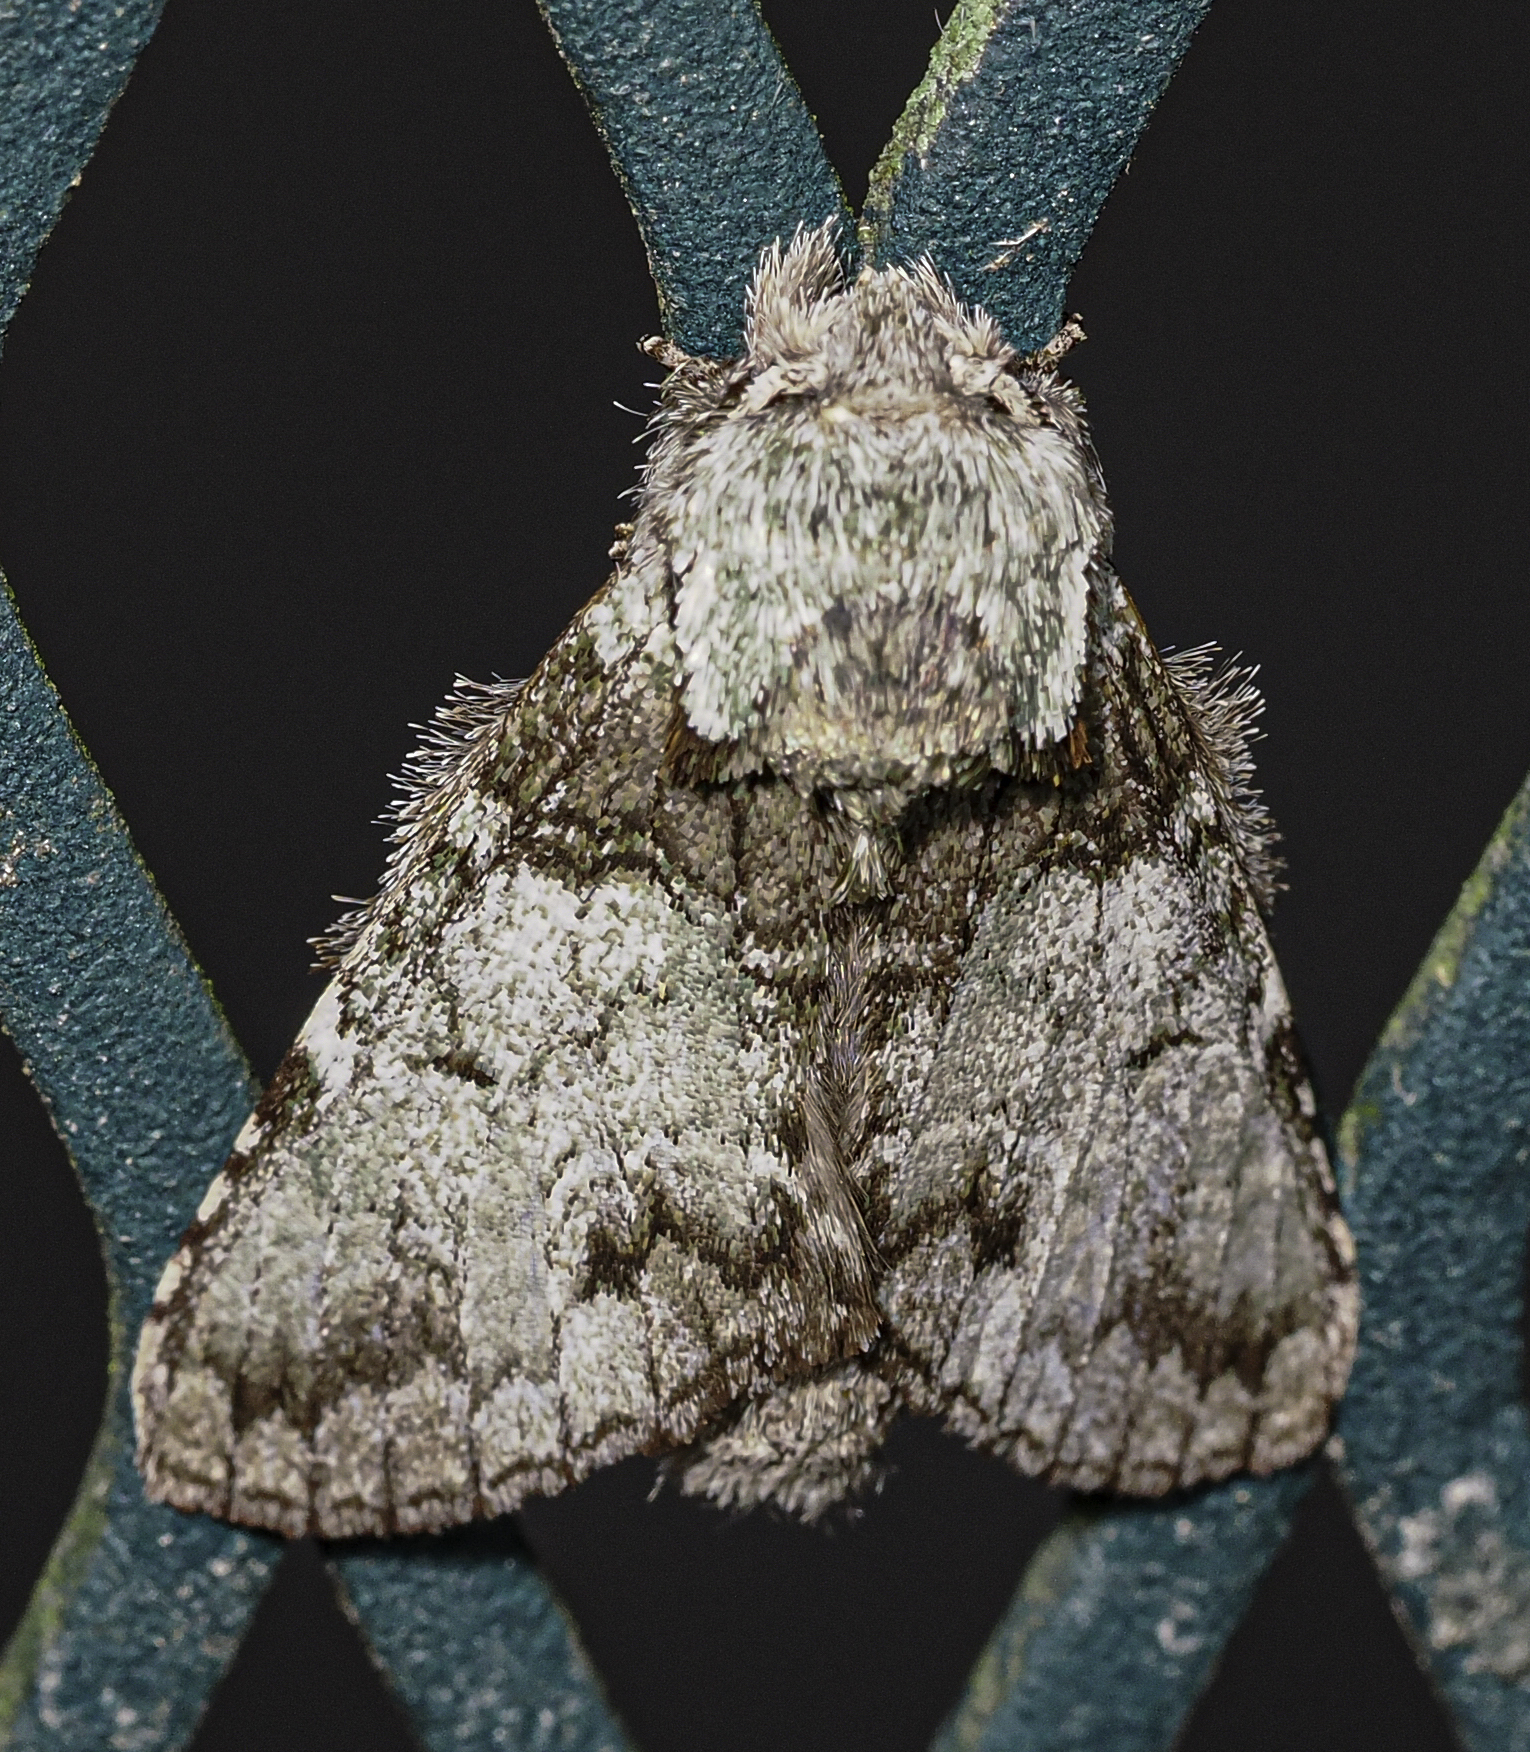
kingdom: Animalia
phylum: Arthropoda
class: Insecta
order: Lepidoptera
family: Notodontidae
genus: Macrurocampa
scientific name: Macrurocampa marthesia
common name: Mottled prominent
